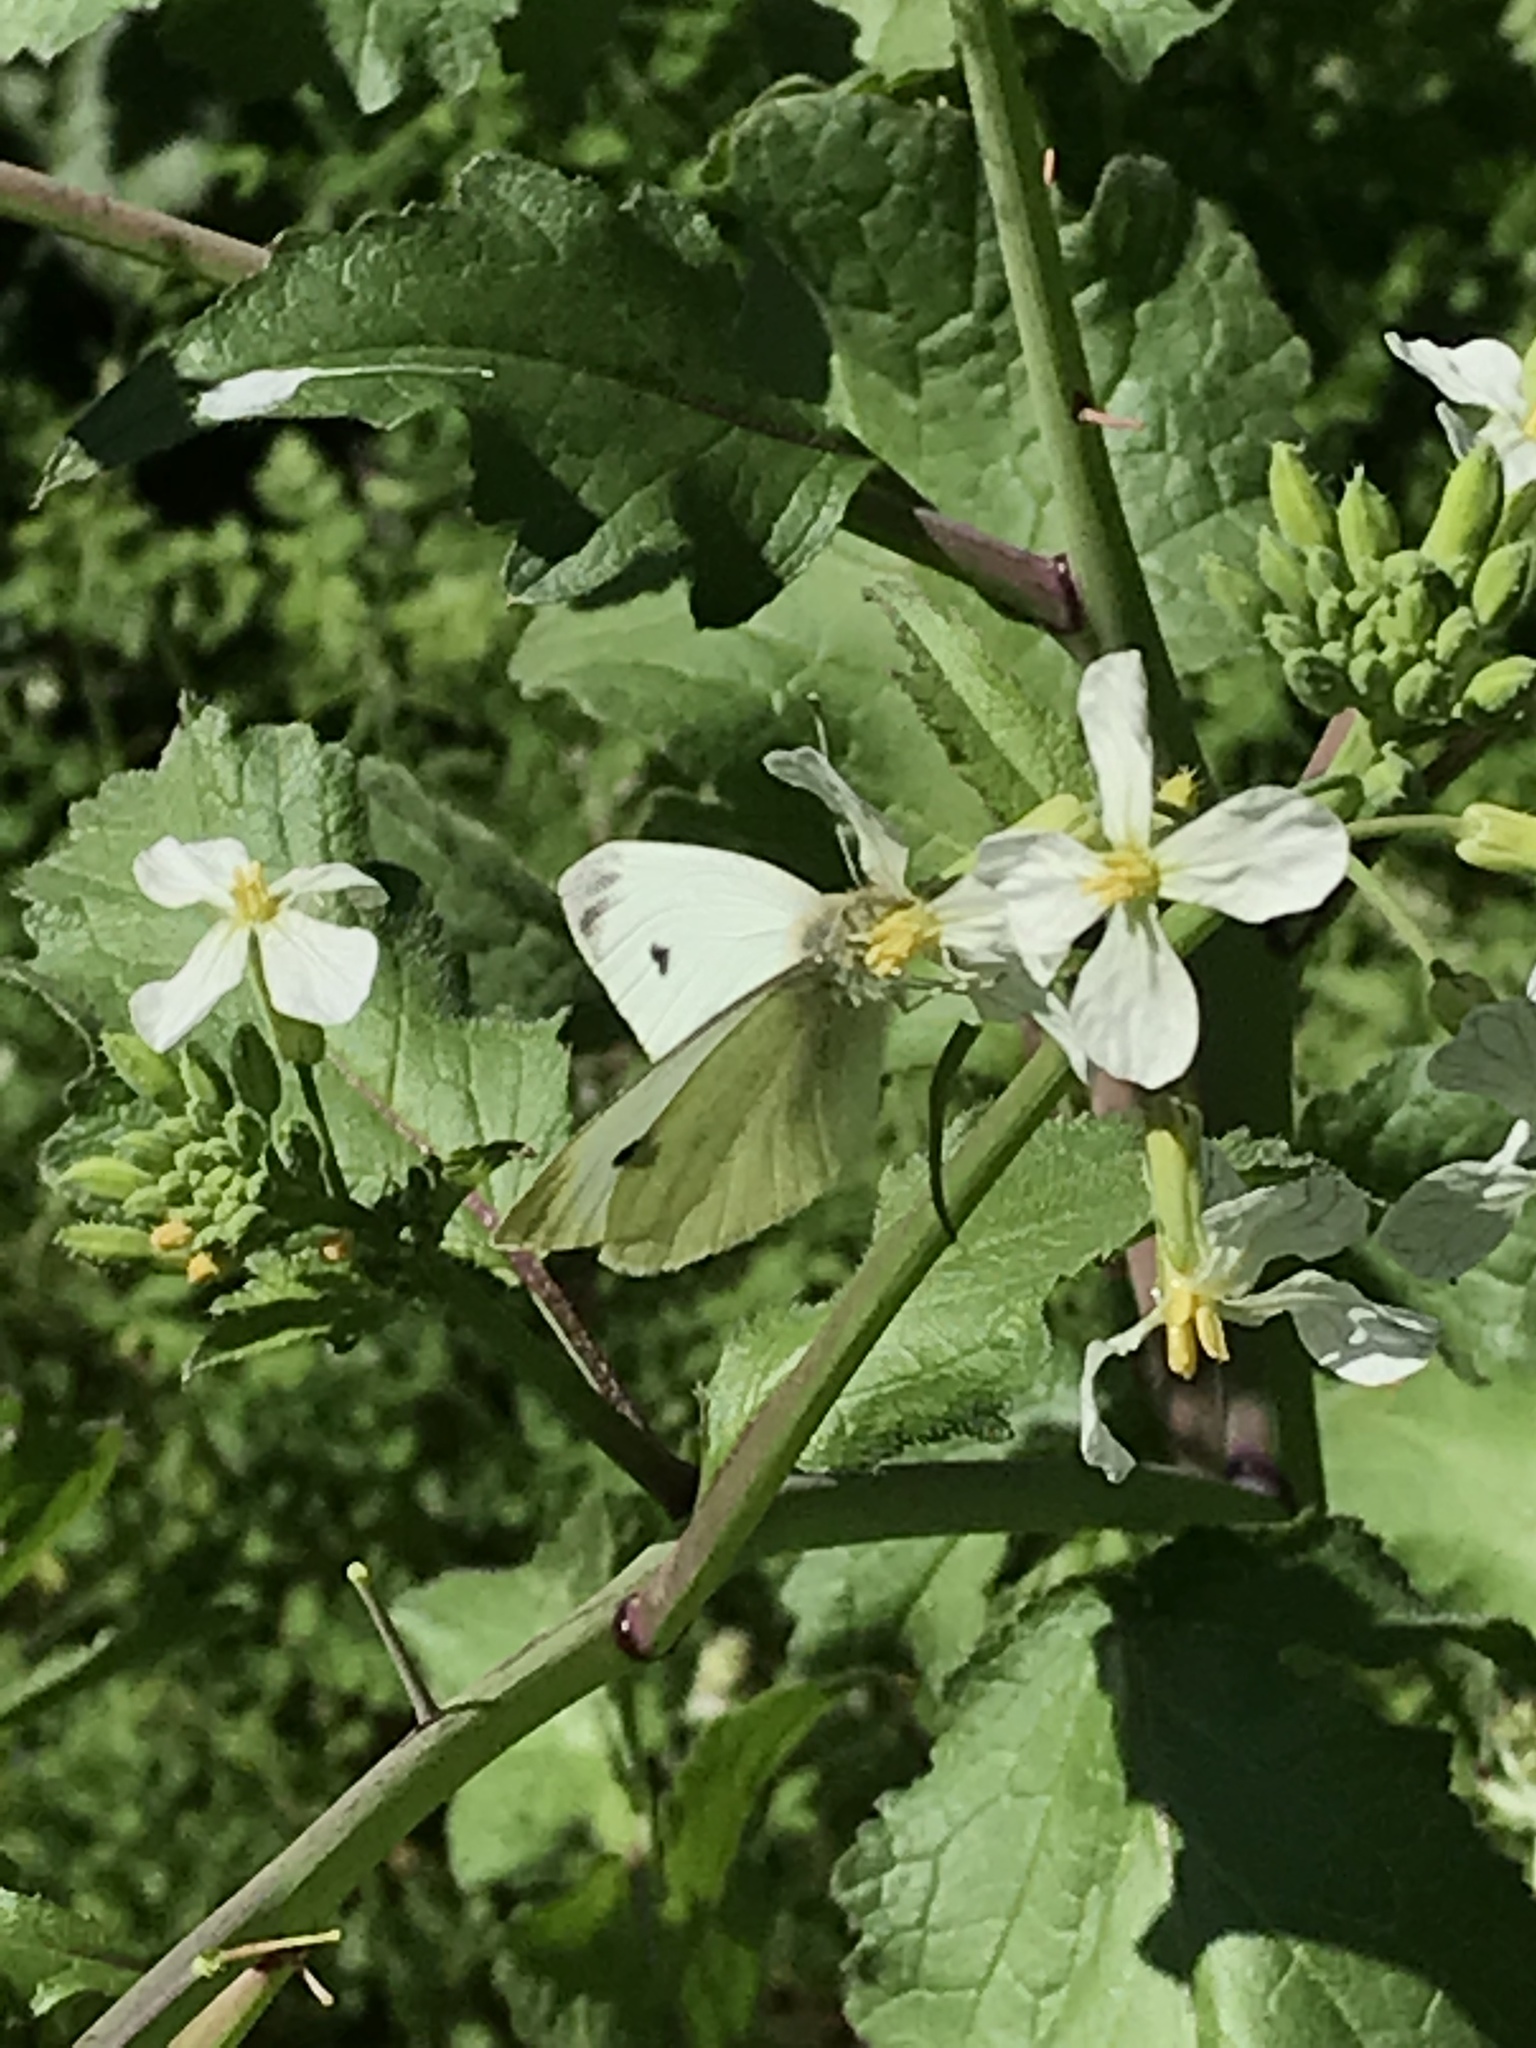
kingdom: Animalia
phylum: Arthropoda
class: Insecta
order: Lepidoptera
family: Pieridae
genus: Pieris
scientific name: Pieris rapae
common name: Small white
